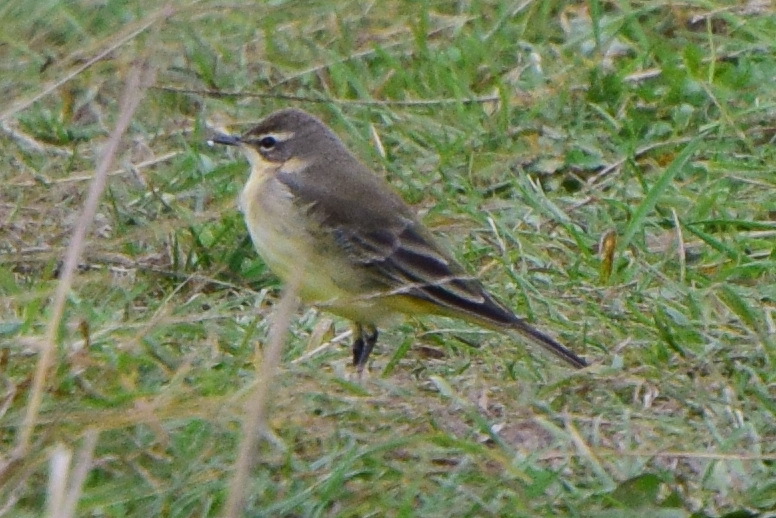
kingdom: Animalia
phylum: Chordata
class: Aves
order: Passeriformes
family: Motacillidae
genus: Motacilla
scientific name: Motacilla flava
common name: Western yellow wagtail
